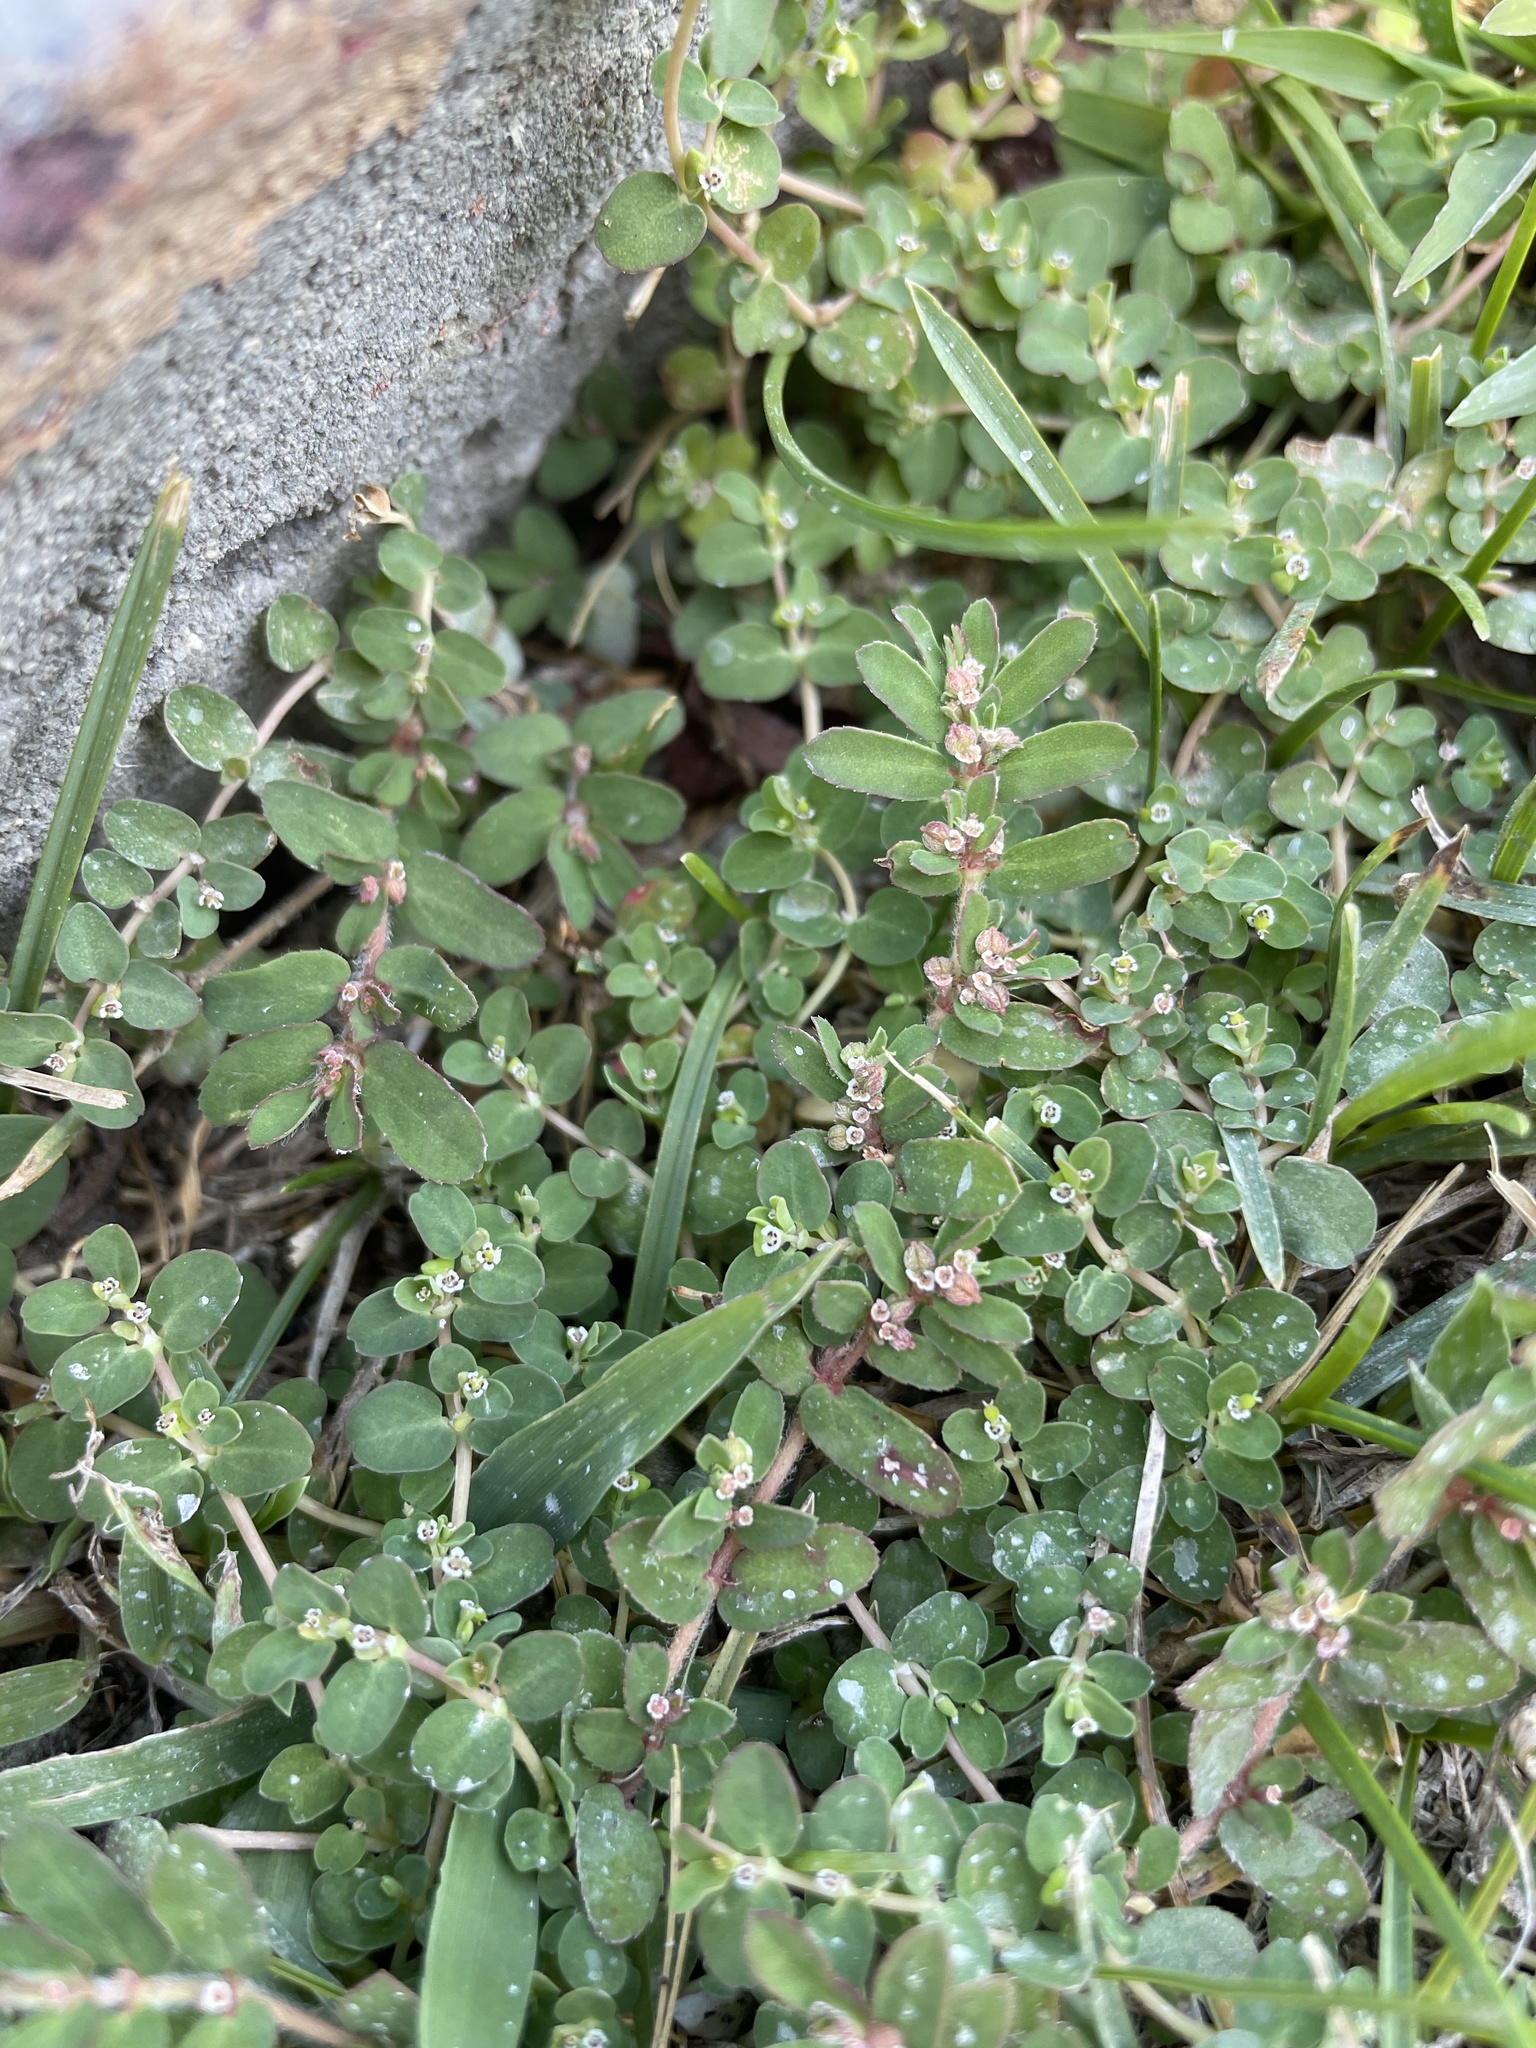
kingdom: Plantae
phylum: Tracheophyta
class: Magnoliopsida
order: Malpighiales
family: Euphorbiaceae
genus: Euphorbia
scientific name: Euphorbia serpens
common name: Matted sandmat
